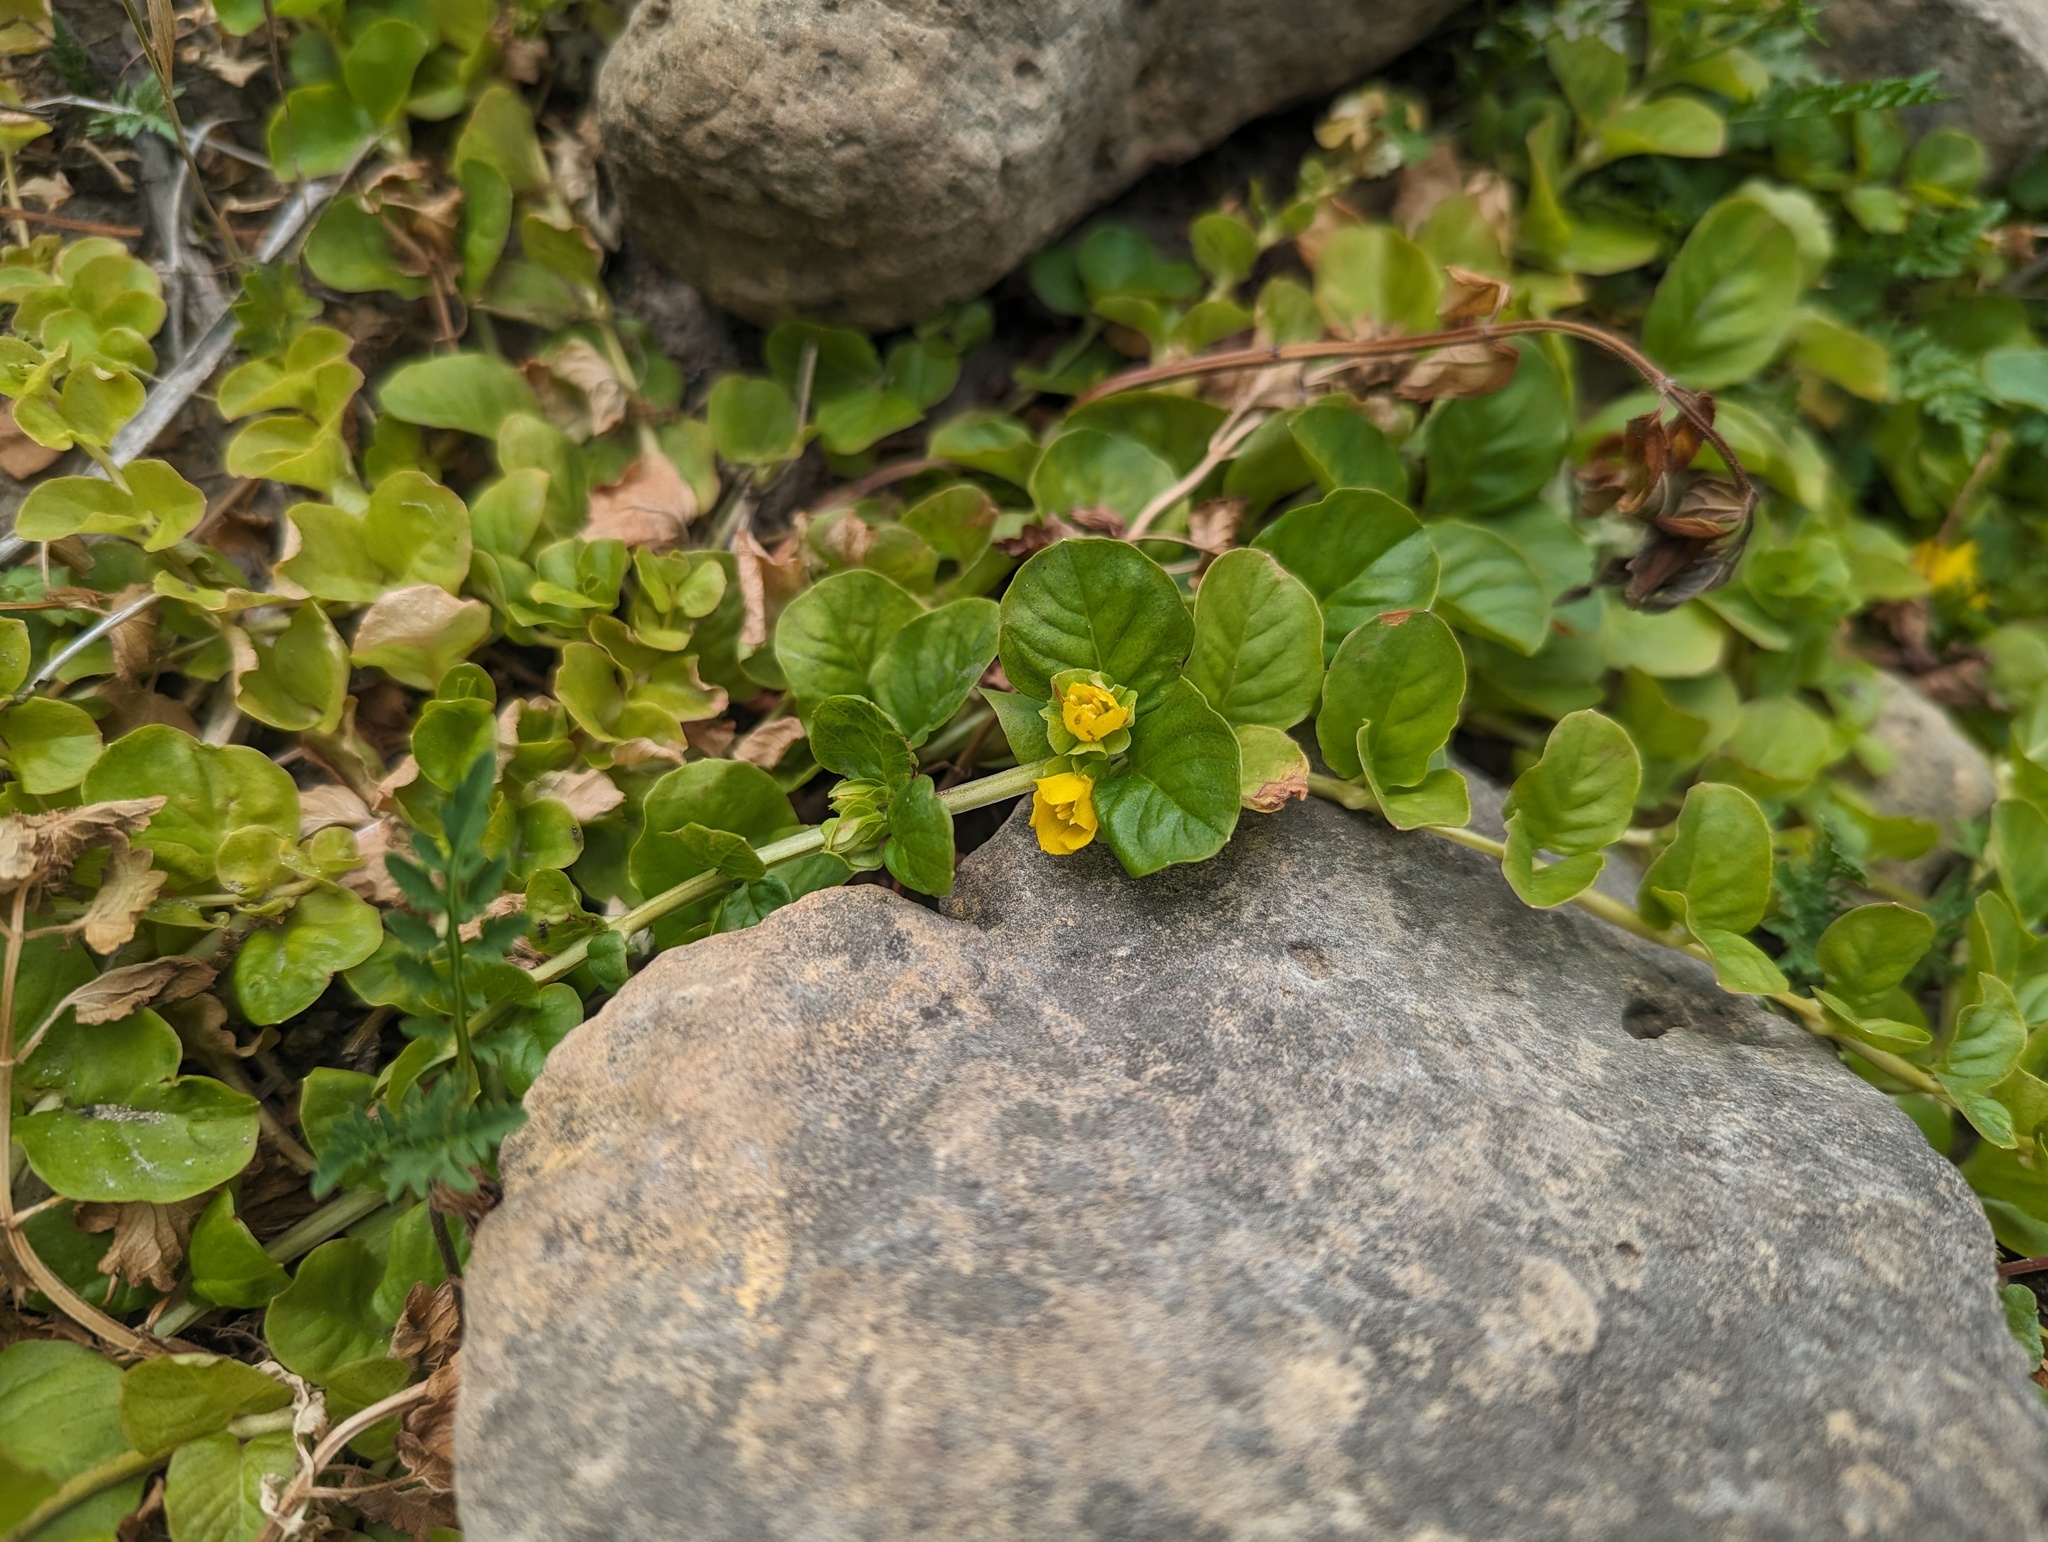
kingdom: Plantae
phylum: Tracheophyta
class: Magnoliopsida
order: Ericales
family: Primulaceae
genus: Lysimachia
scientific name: Lysimachia nummularia
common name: Moneywort
